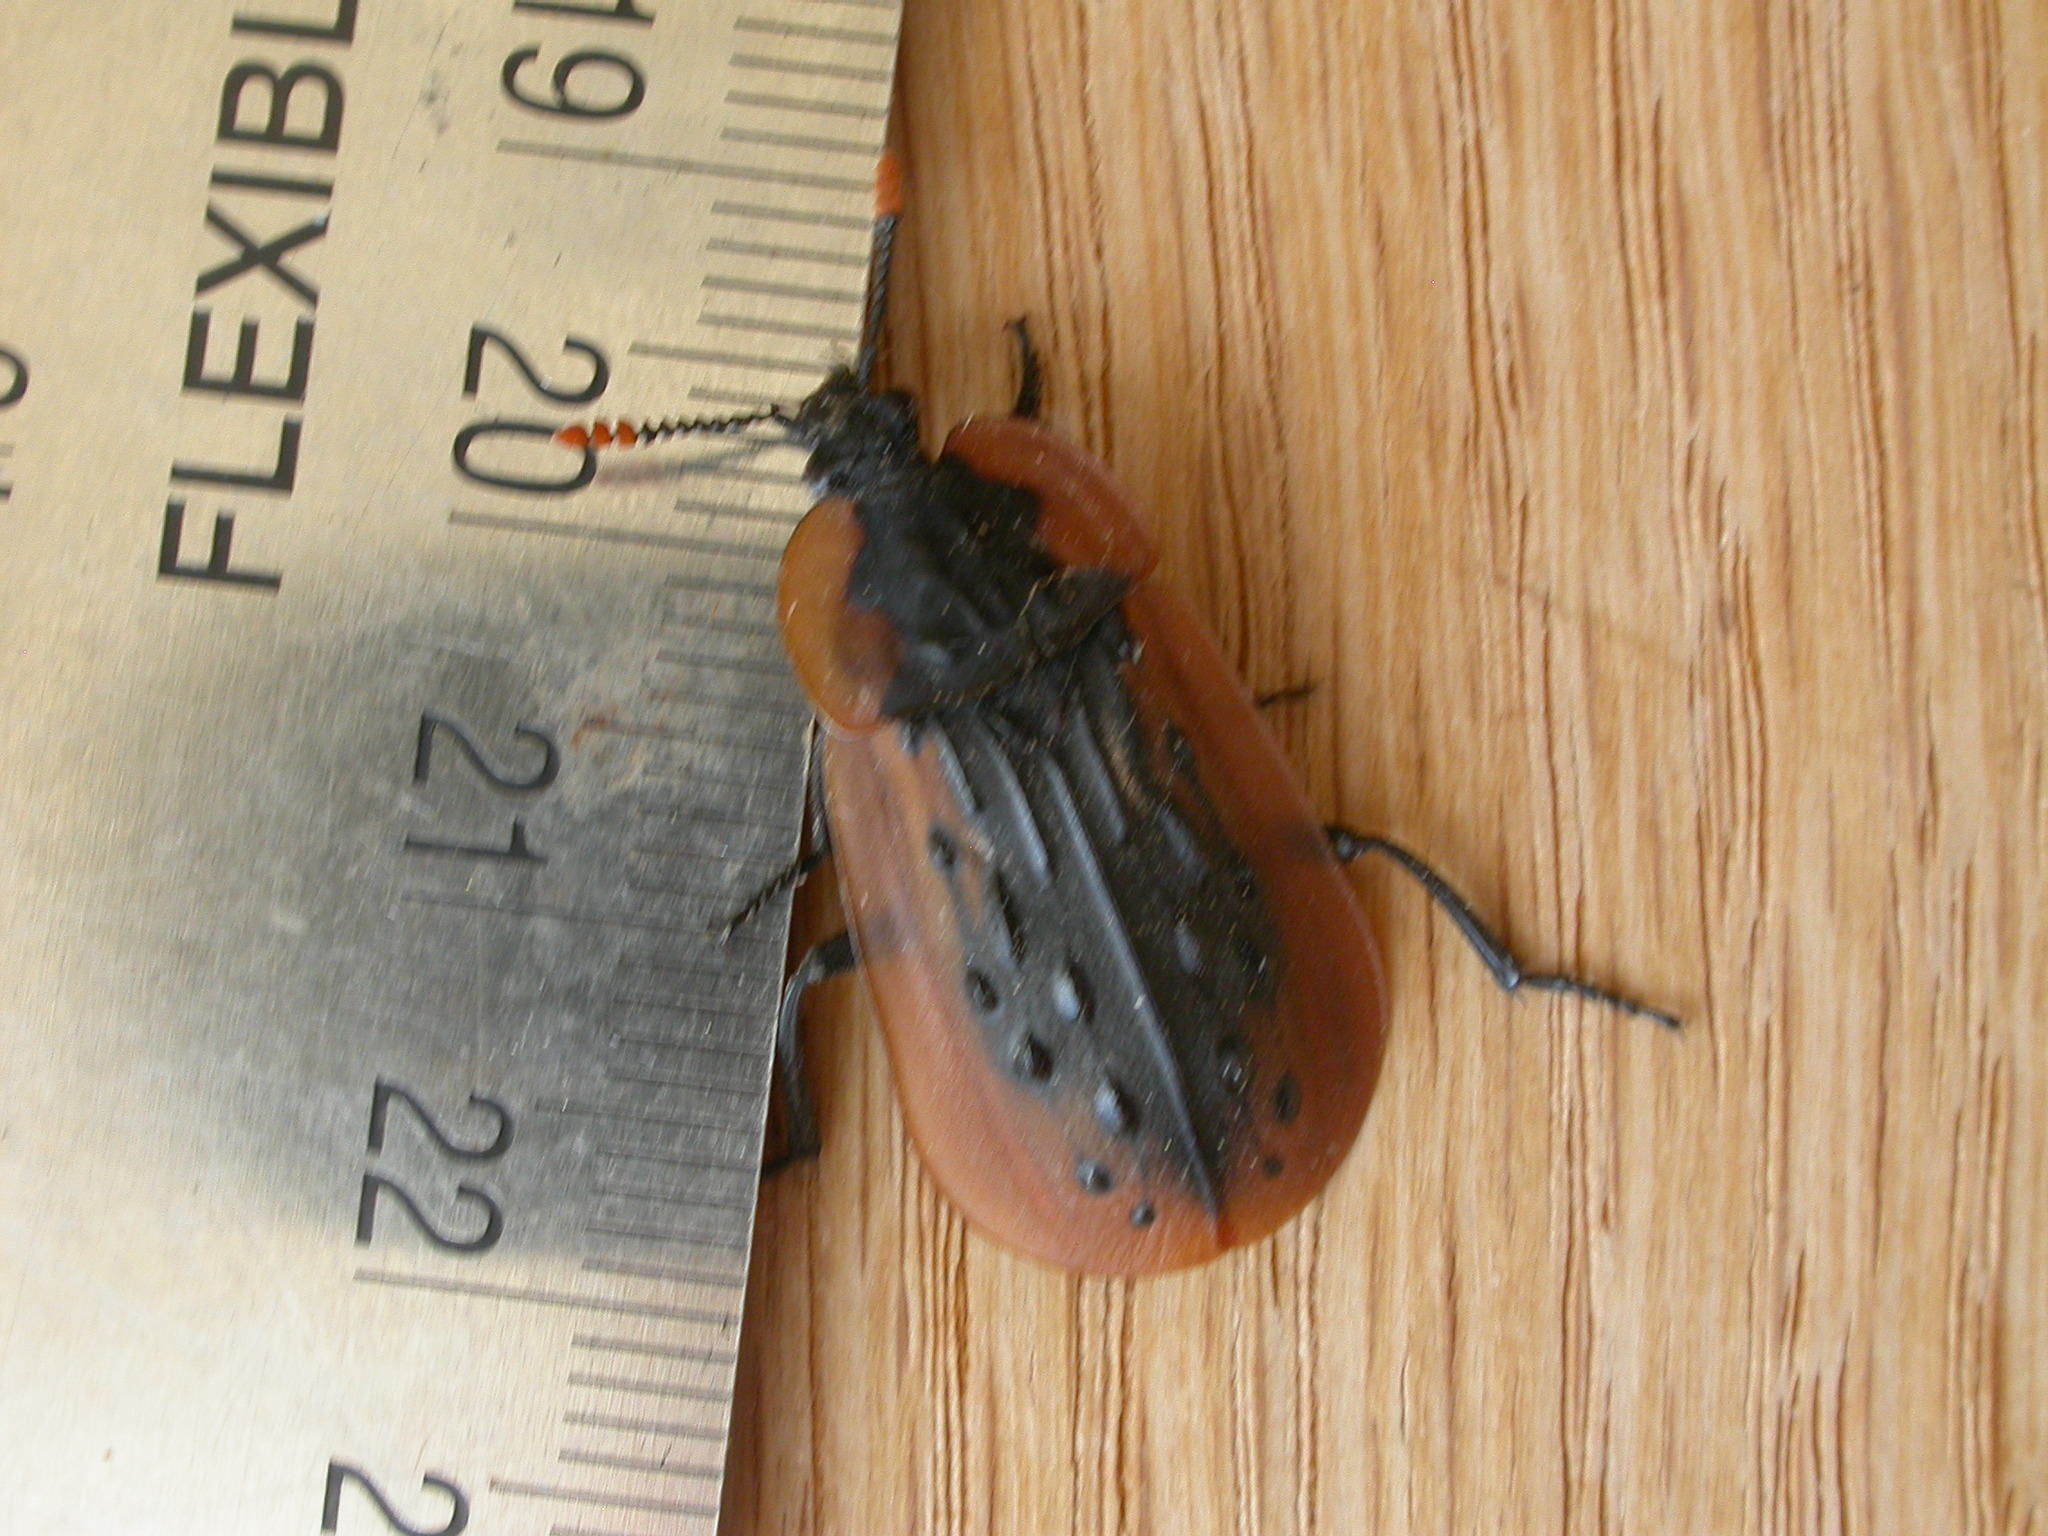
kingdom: Animalia
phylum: Arthropoda
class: Insecta
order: Coleoptera
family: Staphylinidae
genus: Ptomaphila
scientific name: Ptomaphila lacrymosa
